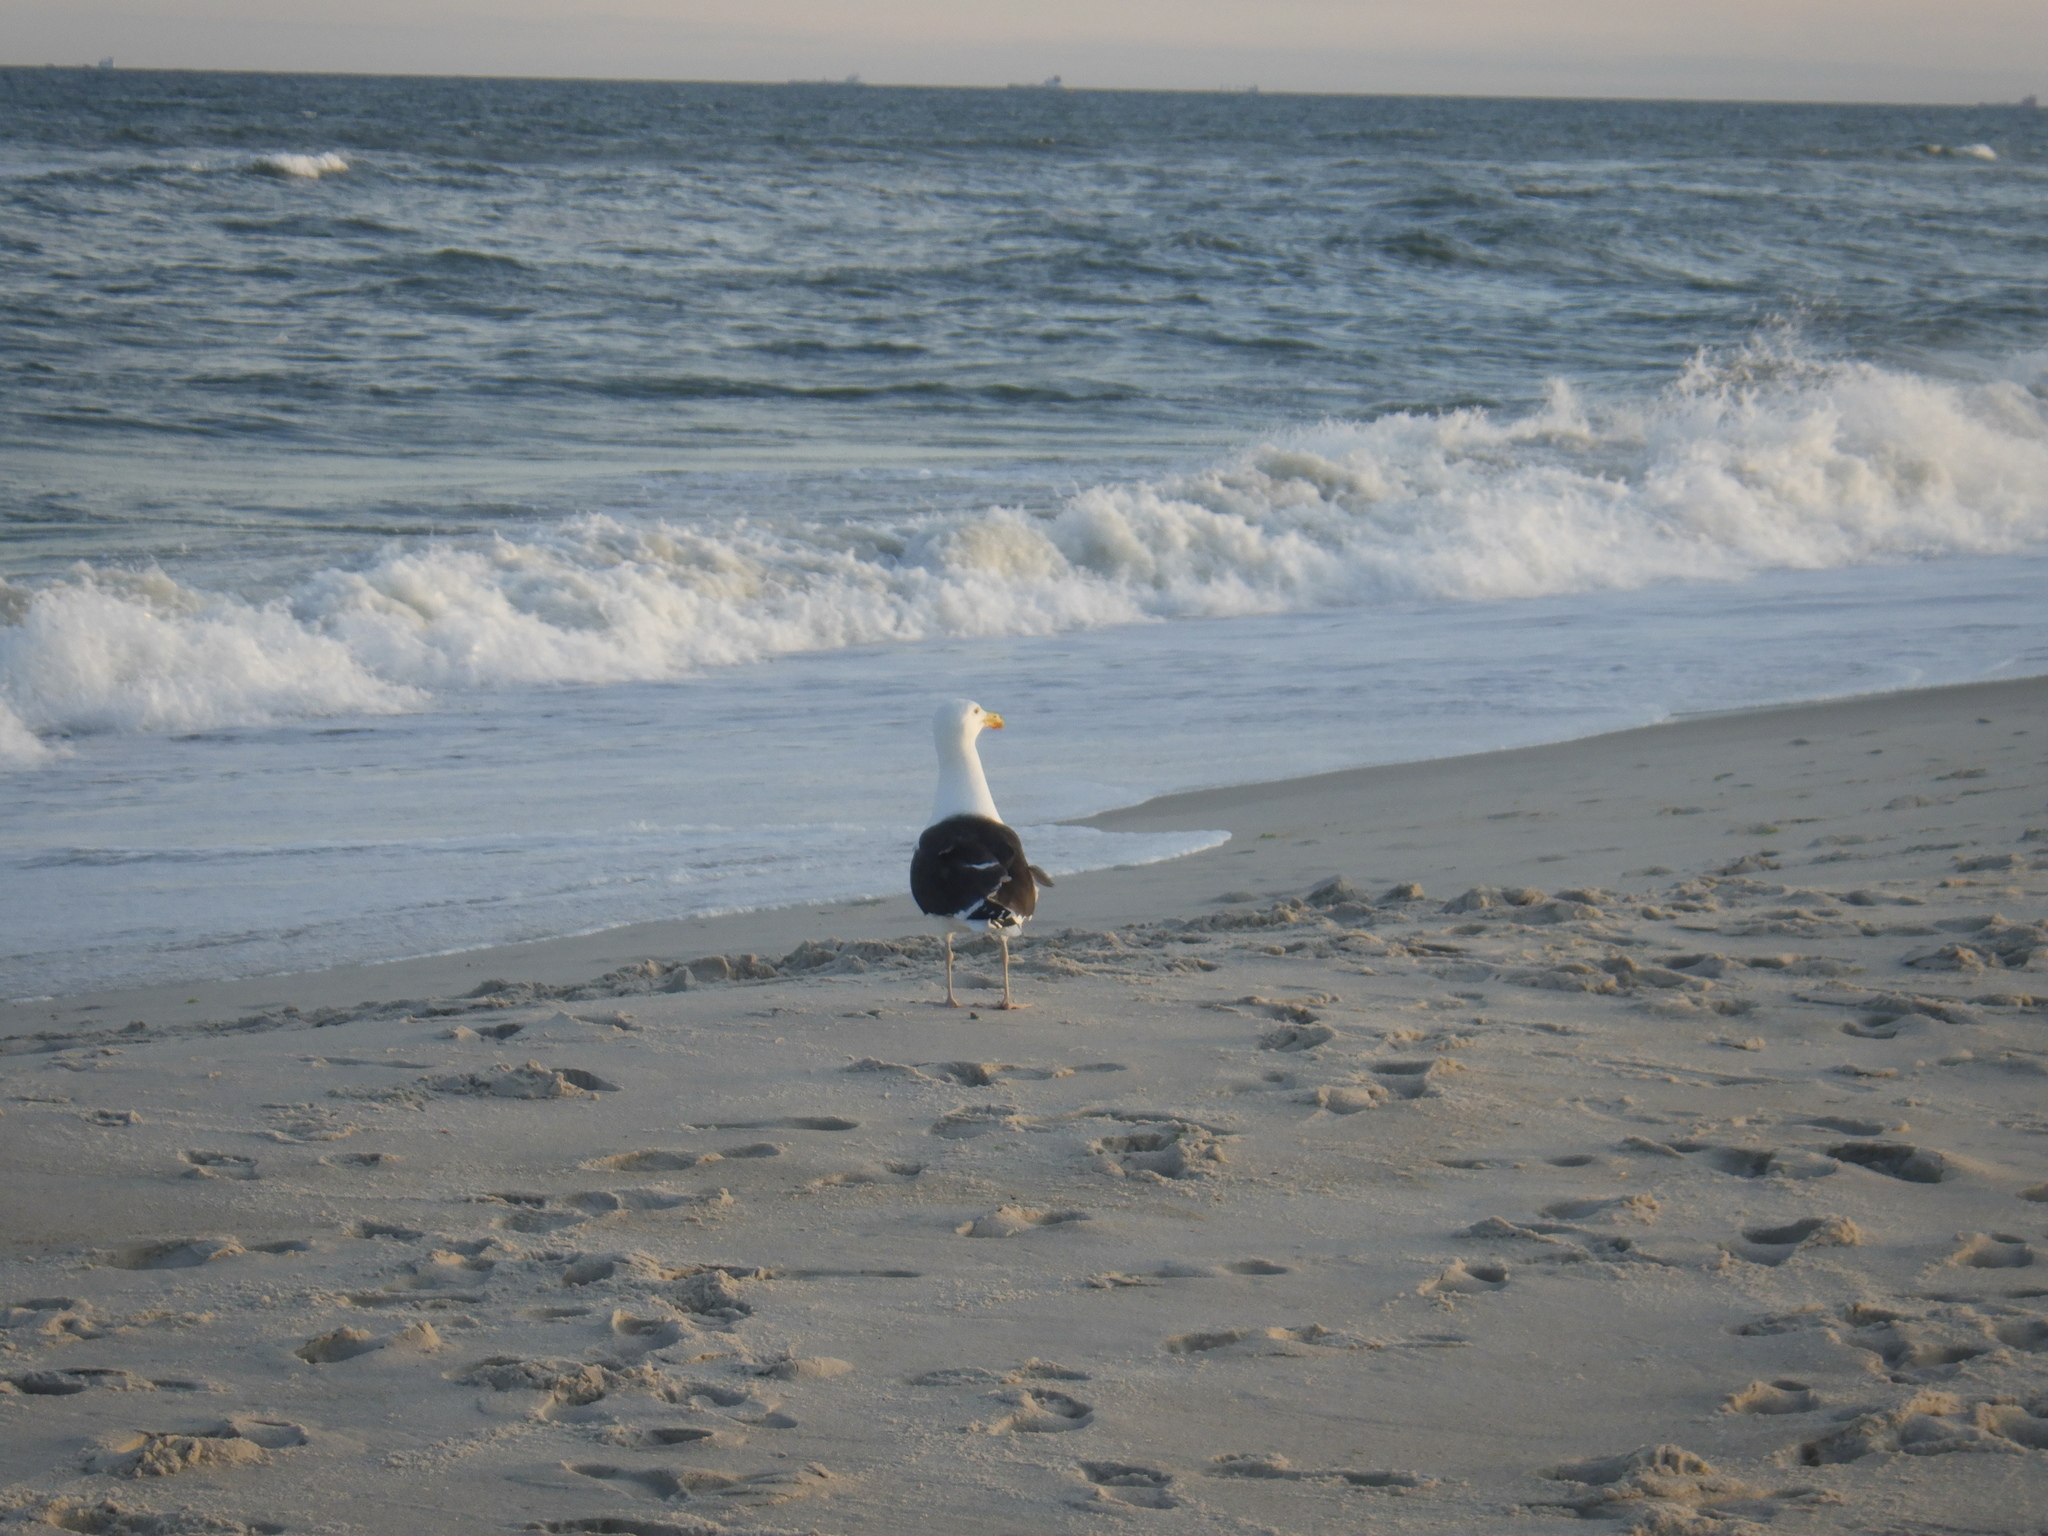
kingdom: Animalia
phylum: Chordata
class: Aves
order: Charadriiformes
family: Laridae
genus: Larus
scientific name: Larus marinus
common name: Great black-backed gull
